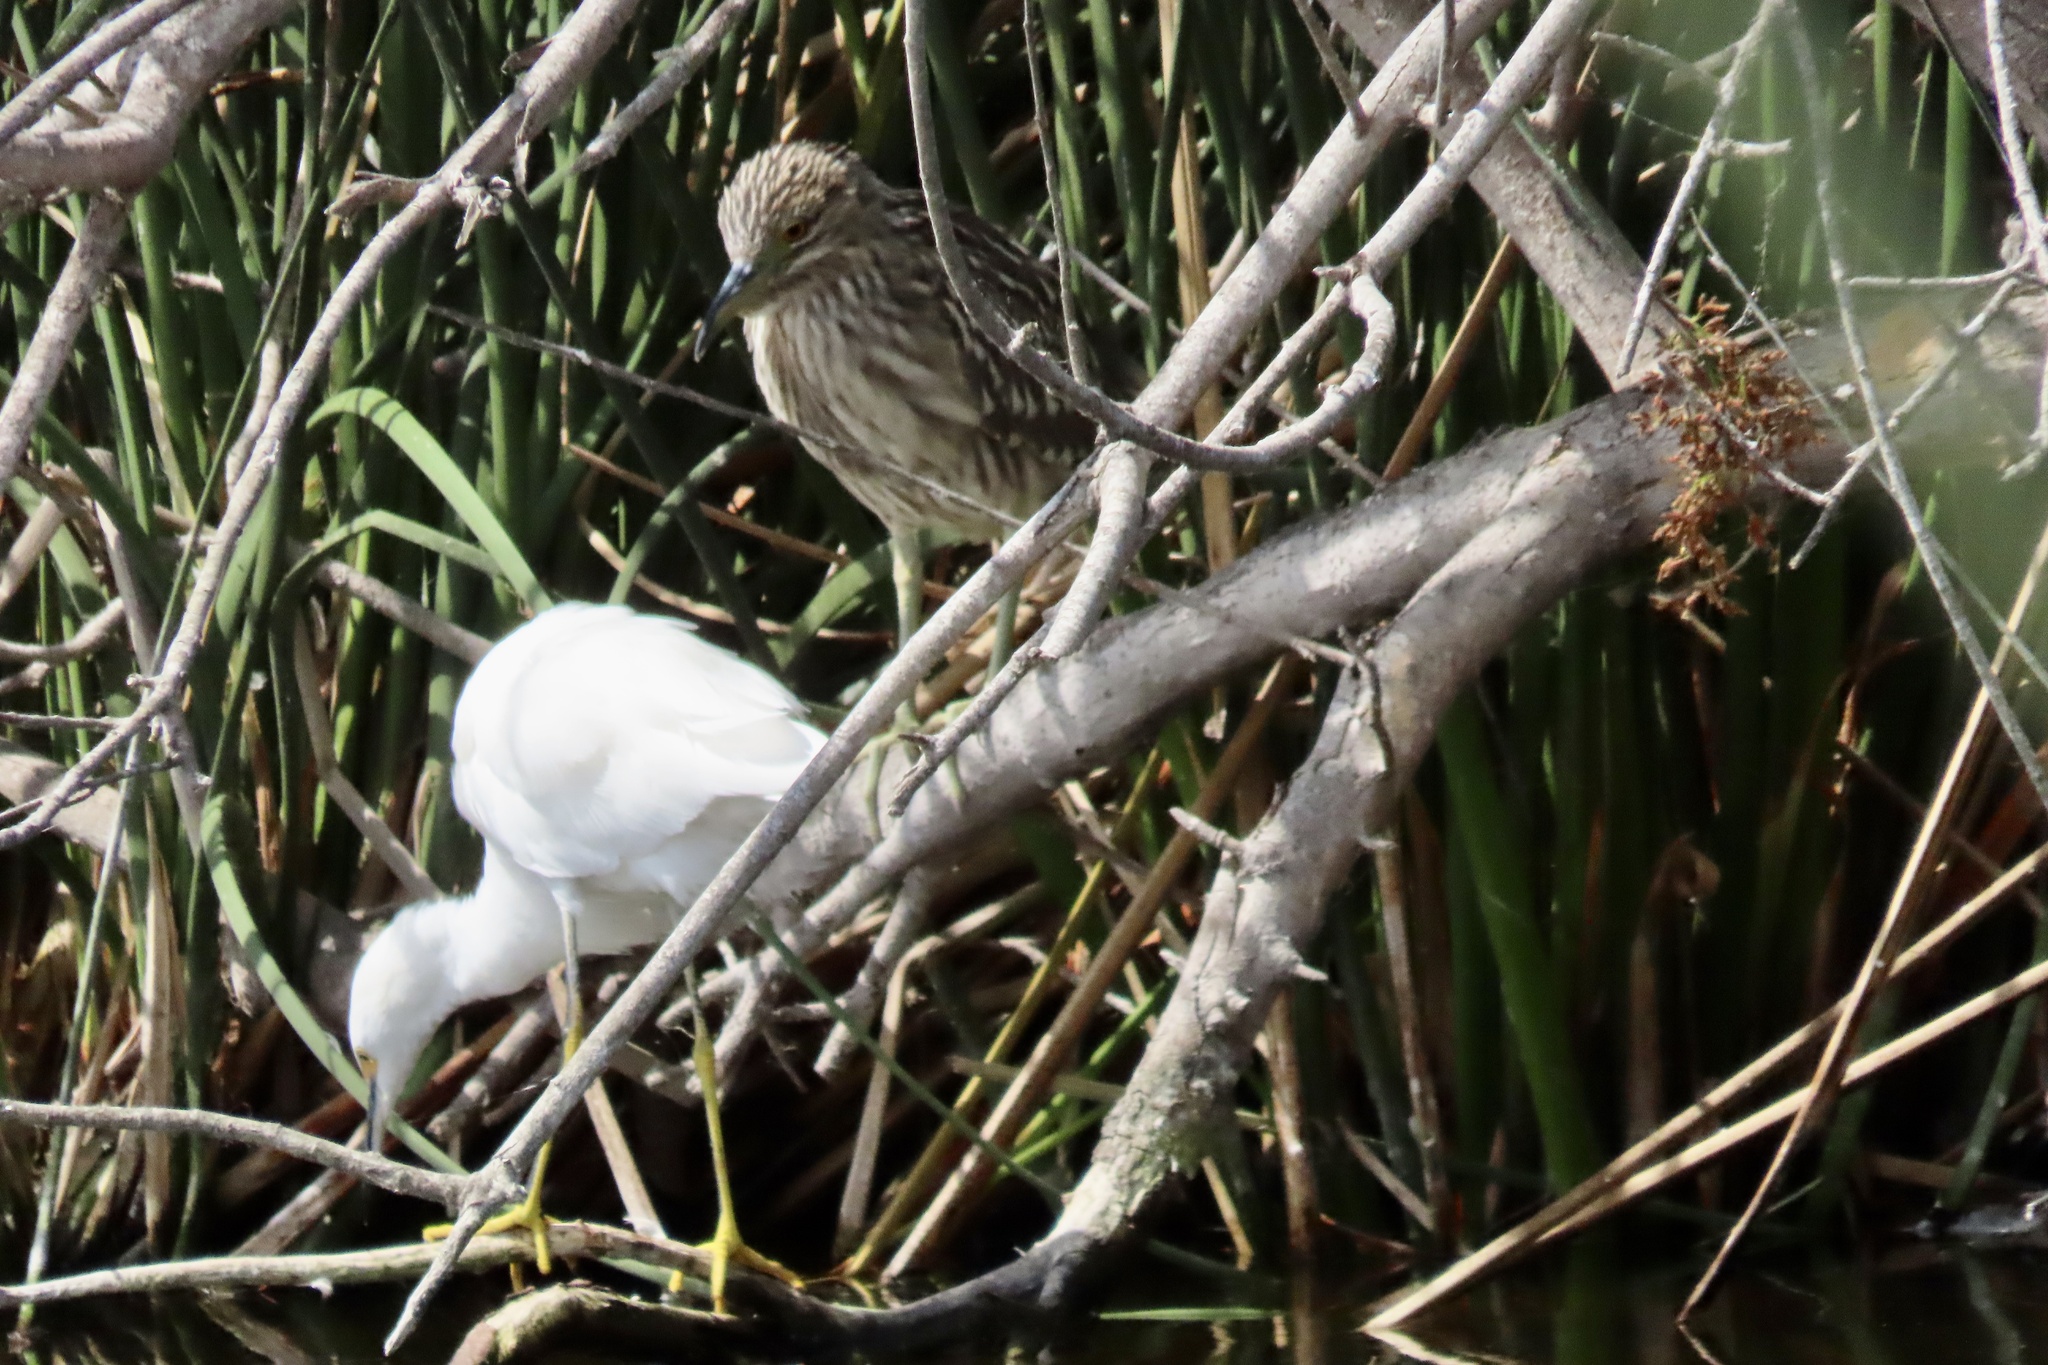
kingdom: Animalia
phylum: Chordata
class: Aves
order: Pelecaniformes
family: Ardeidae
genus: Egretta
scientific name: Egretta thula
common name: Snowy egret
